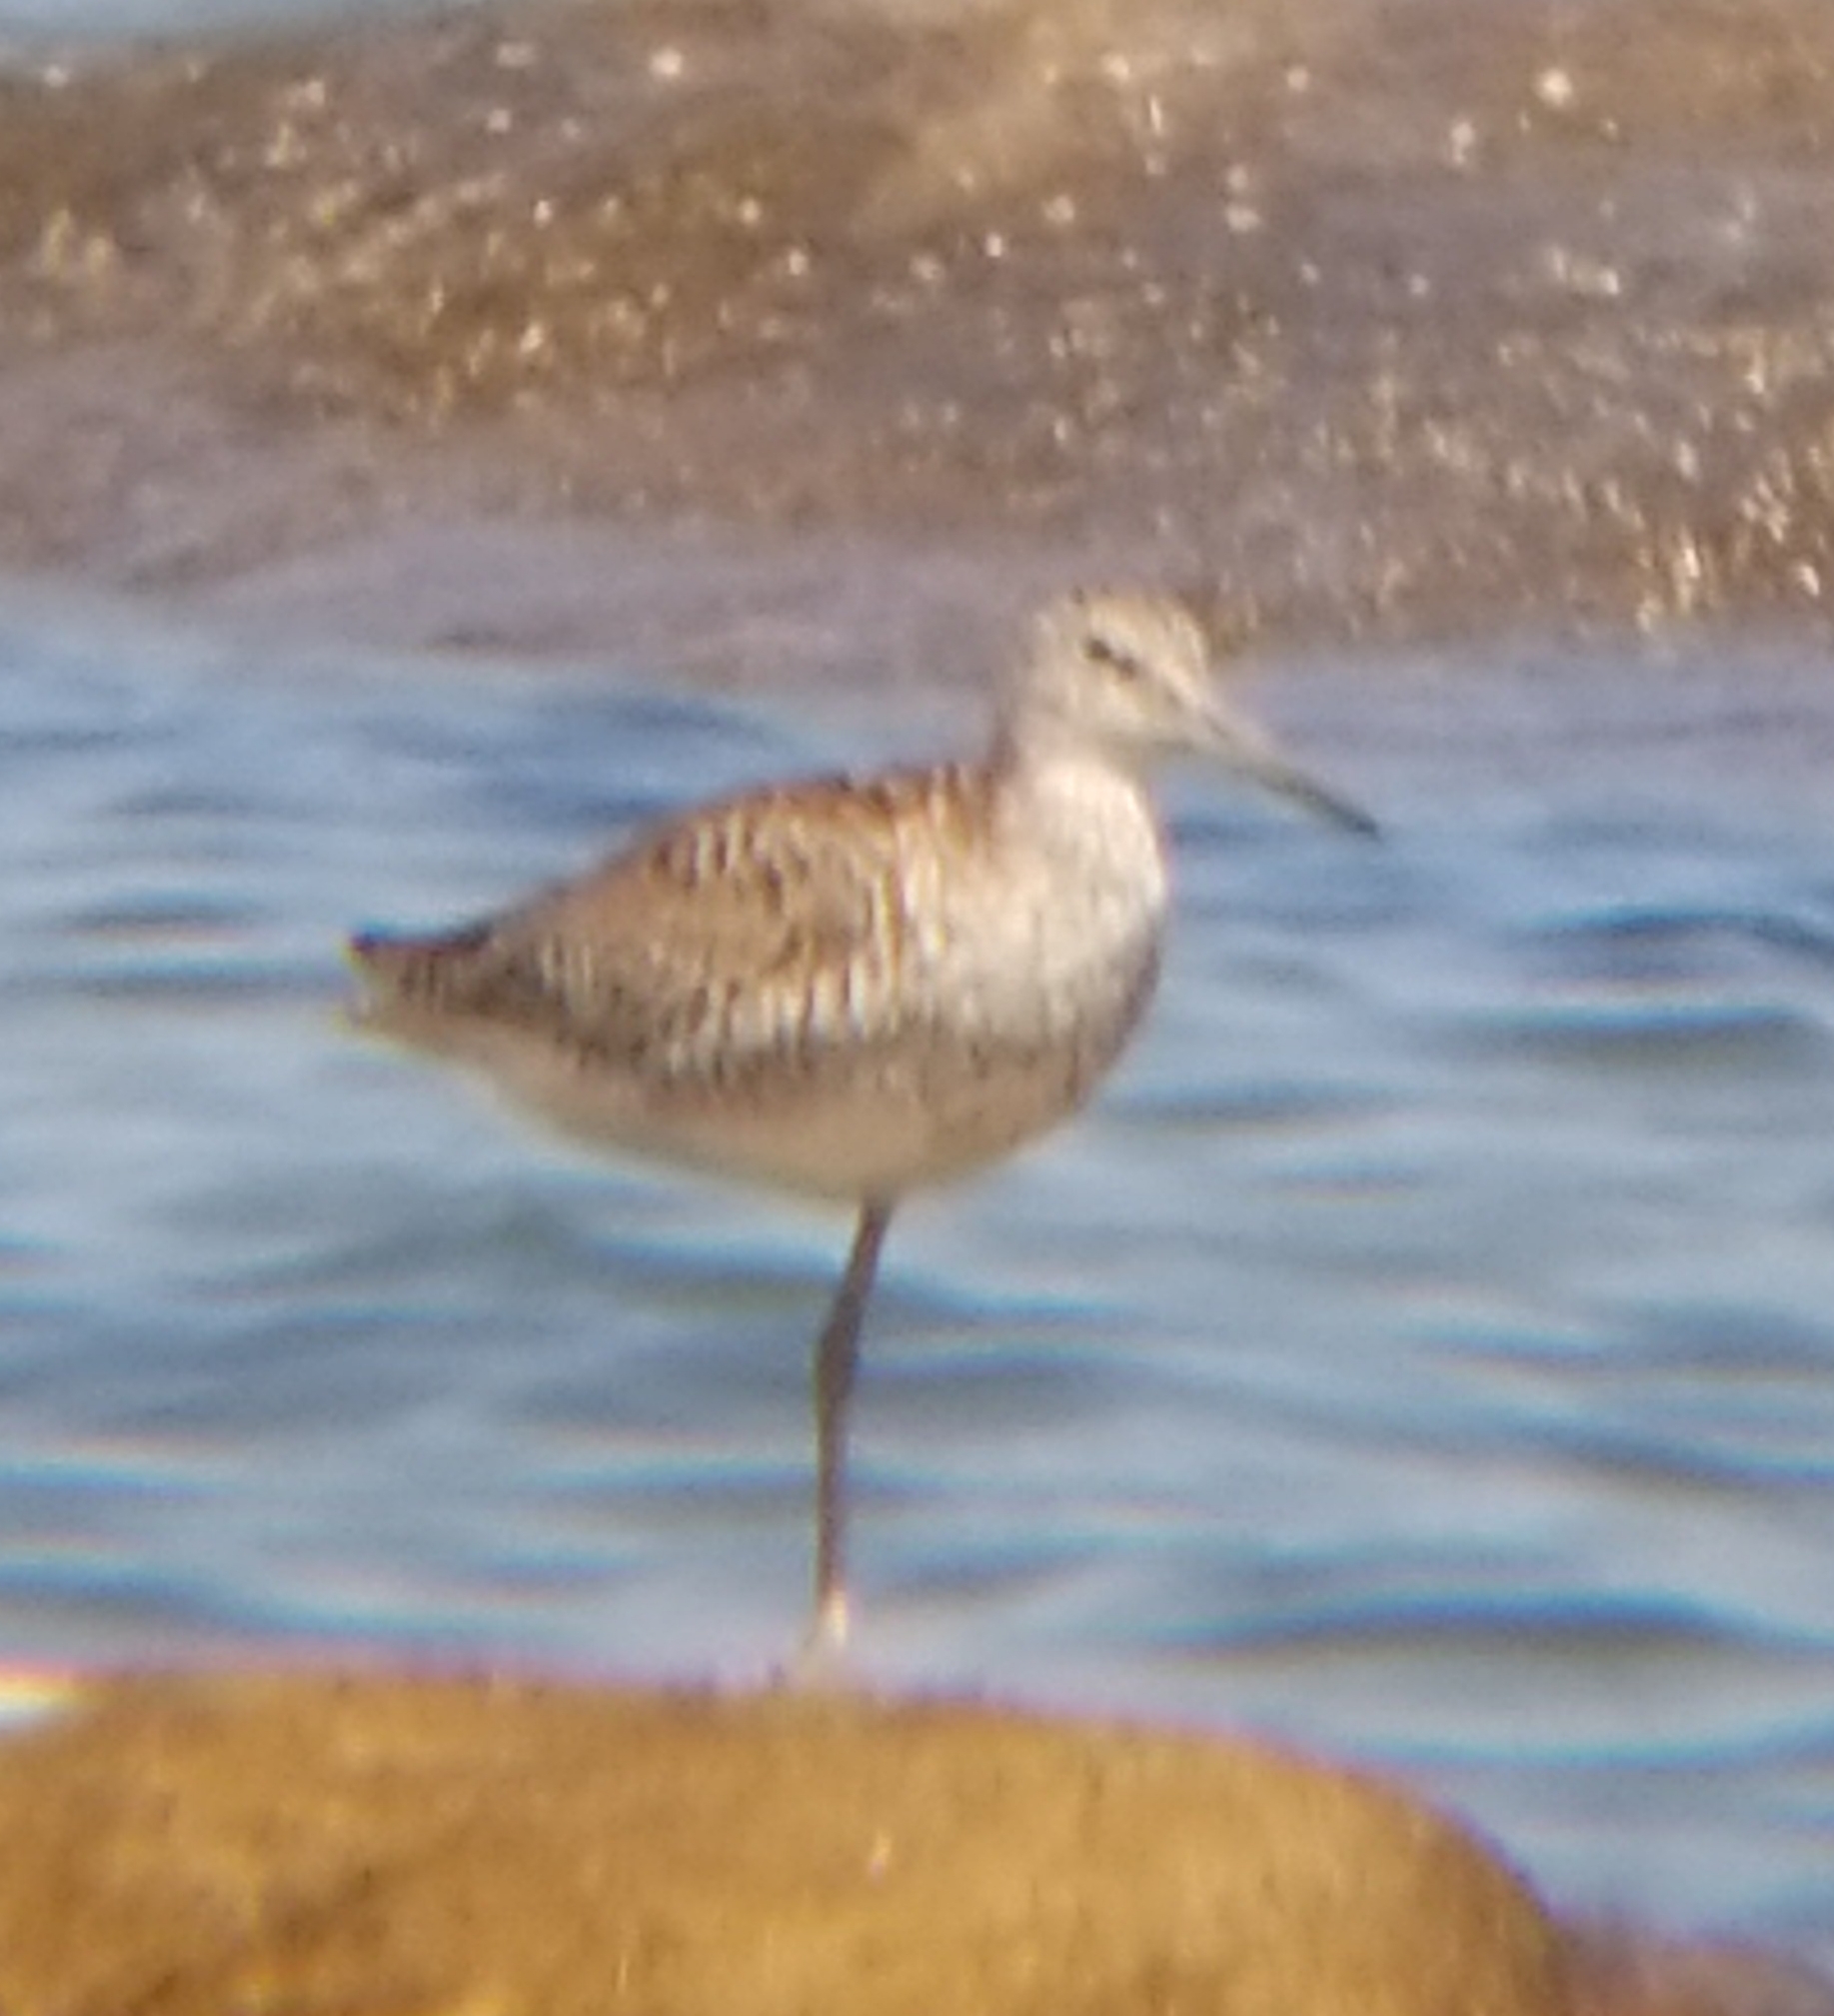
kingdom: Animalia
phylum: Chordata
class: Aves
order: Charadriiformes
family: Scolopacidae
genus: Tringa
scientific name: Tringa semipalmata
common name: Willet
